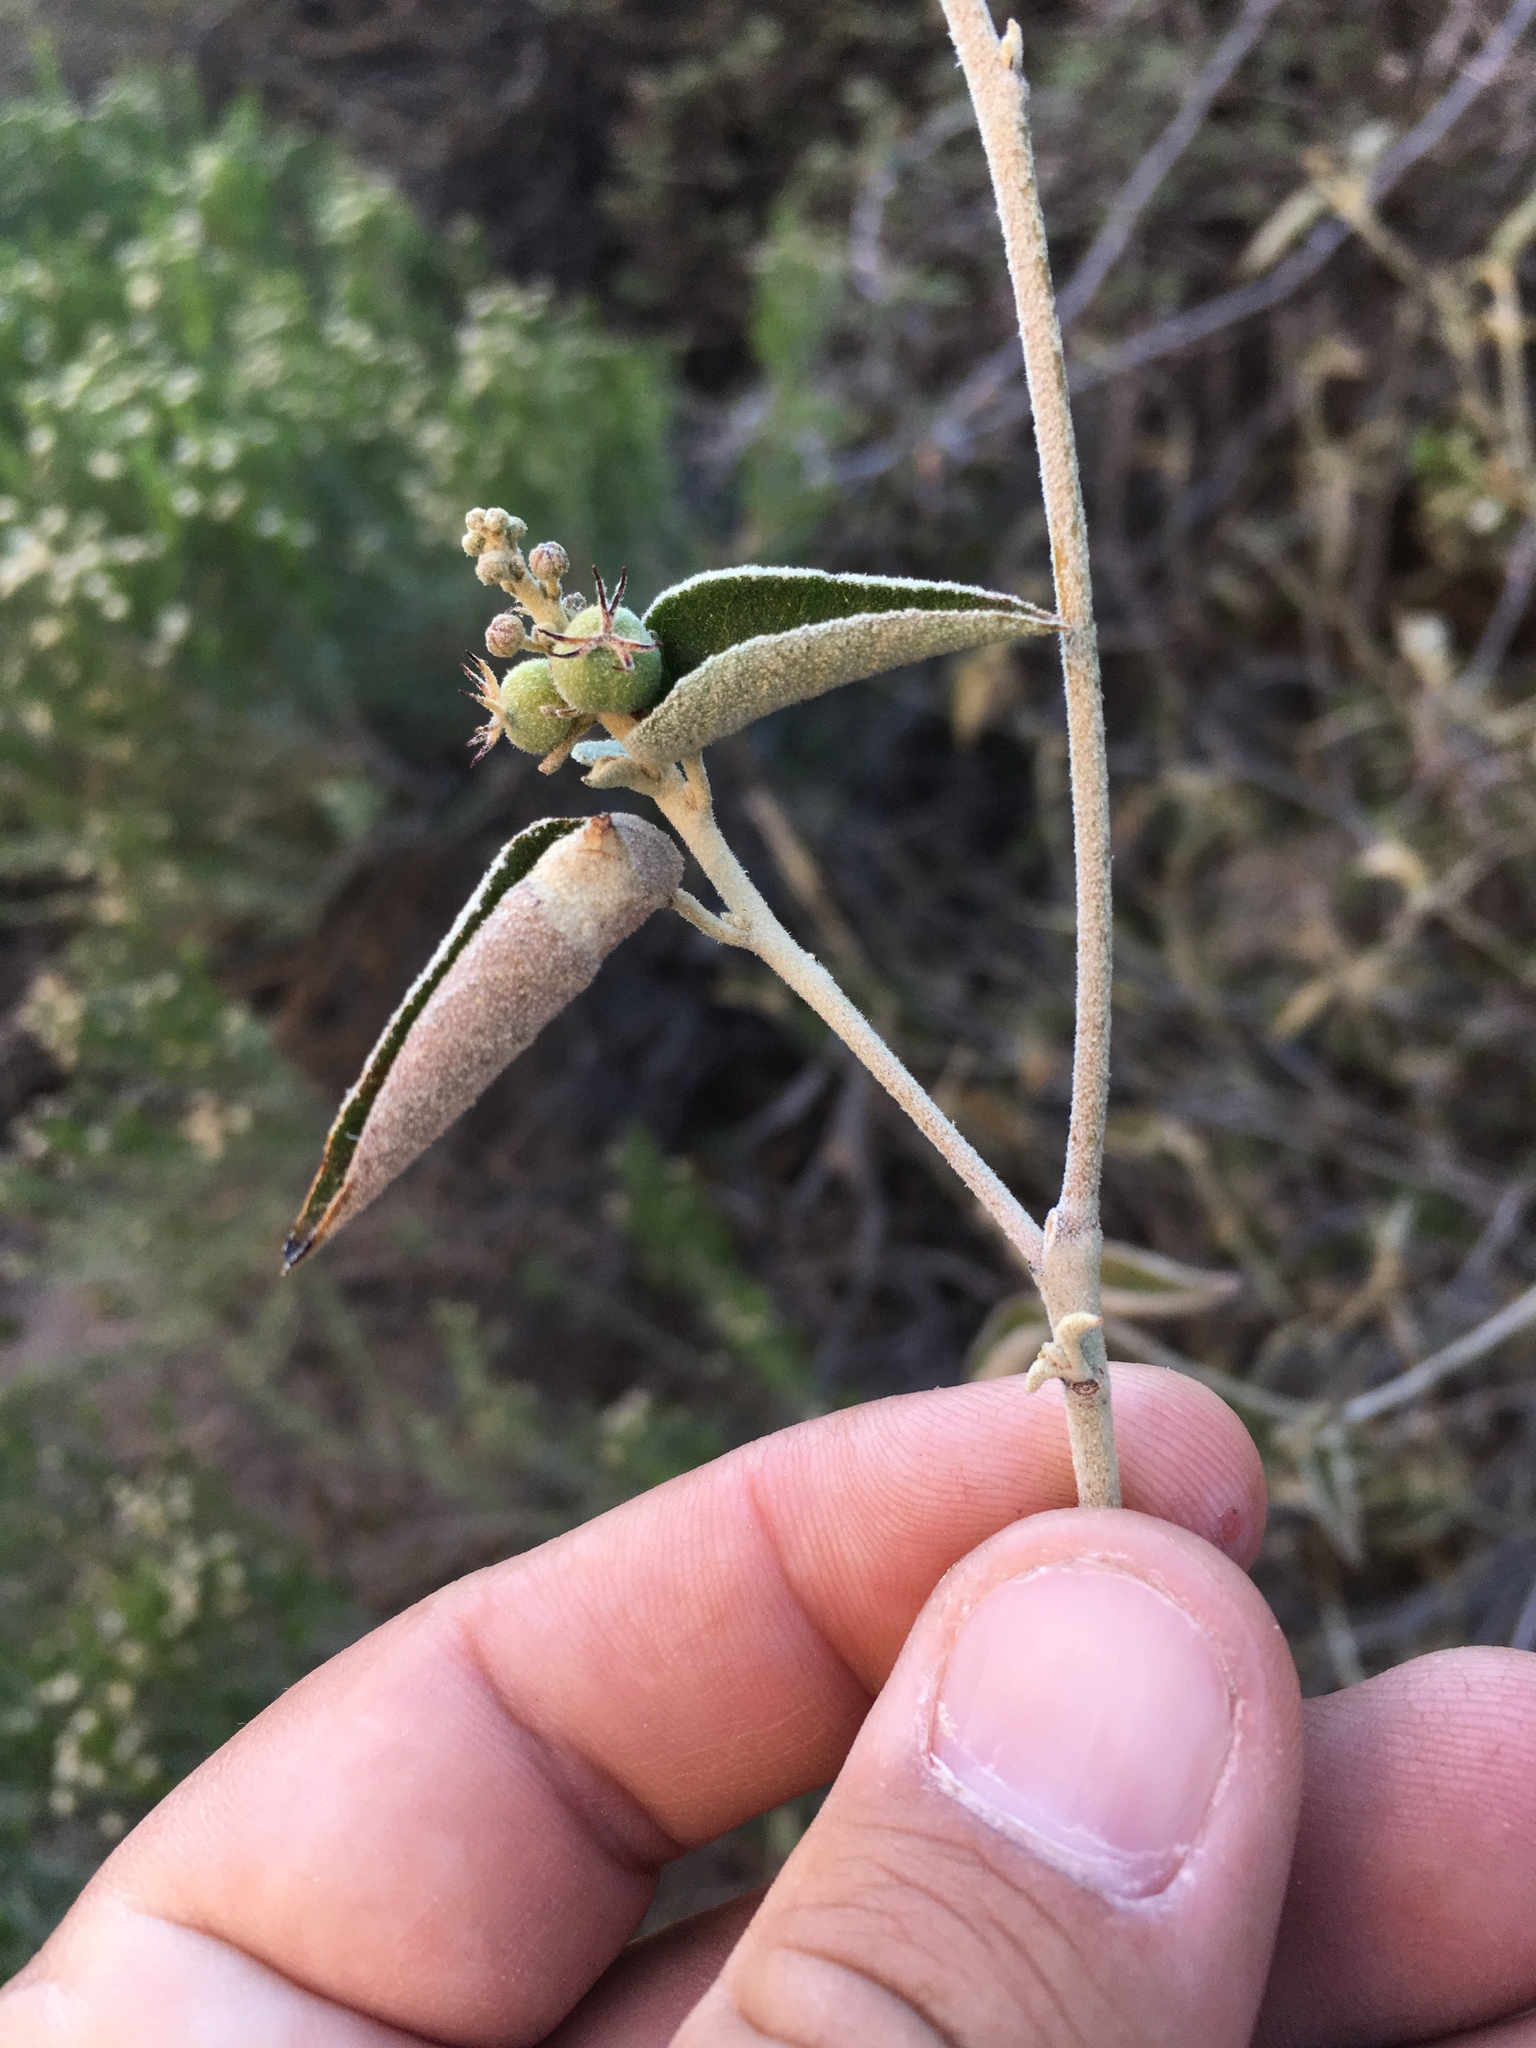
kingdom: Plantae
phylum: Tracheophyta
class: Magnoliopsida
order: Malpighiales
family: Euphorbiaceae
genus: Croton
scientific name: Croton fruticulosus
